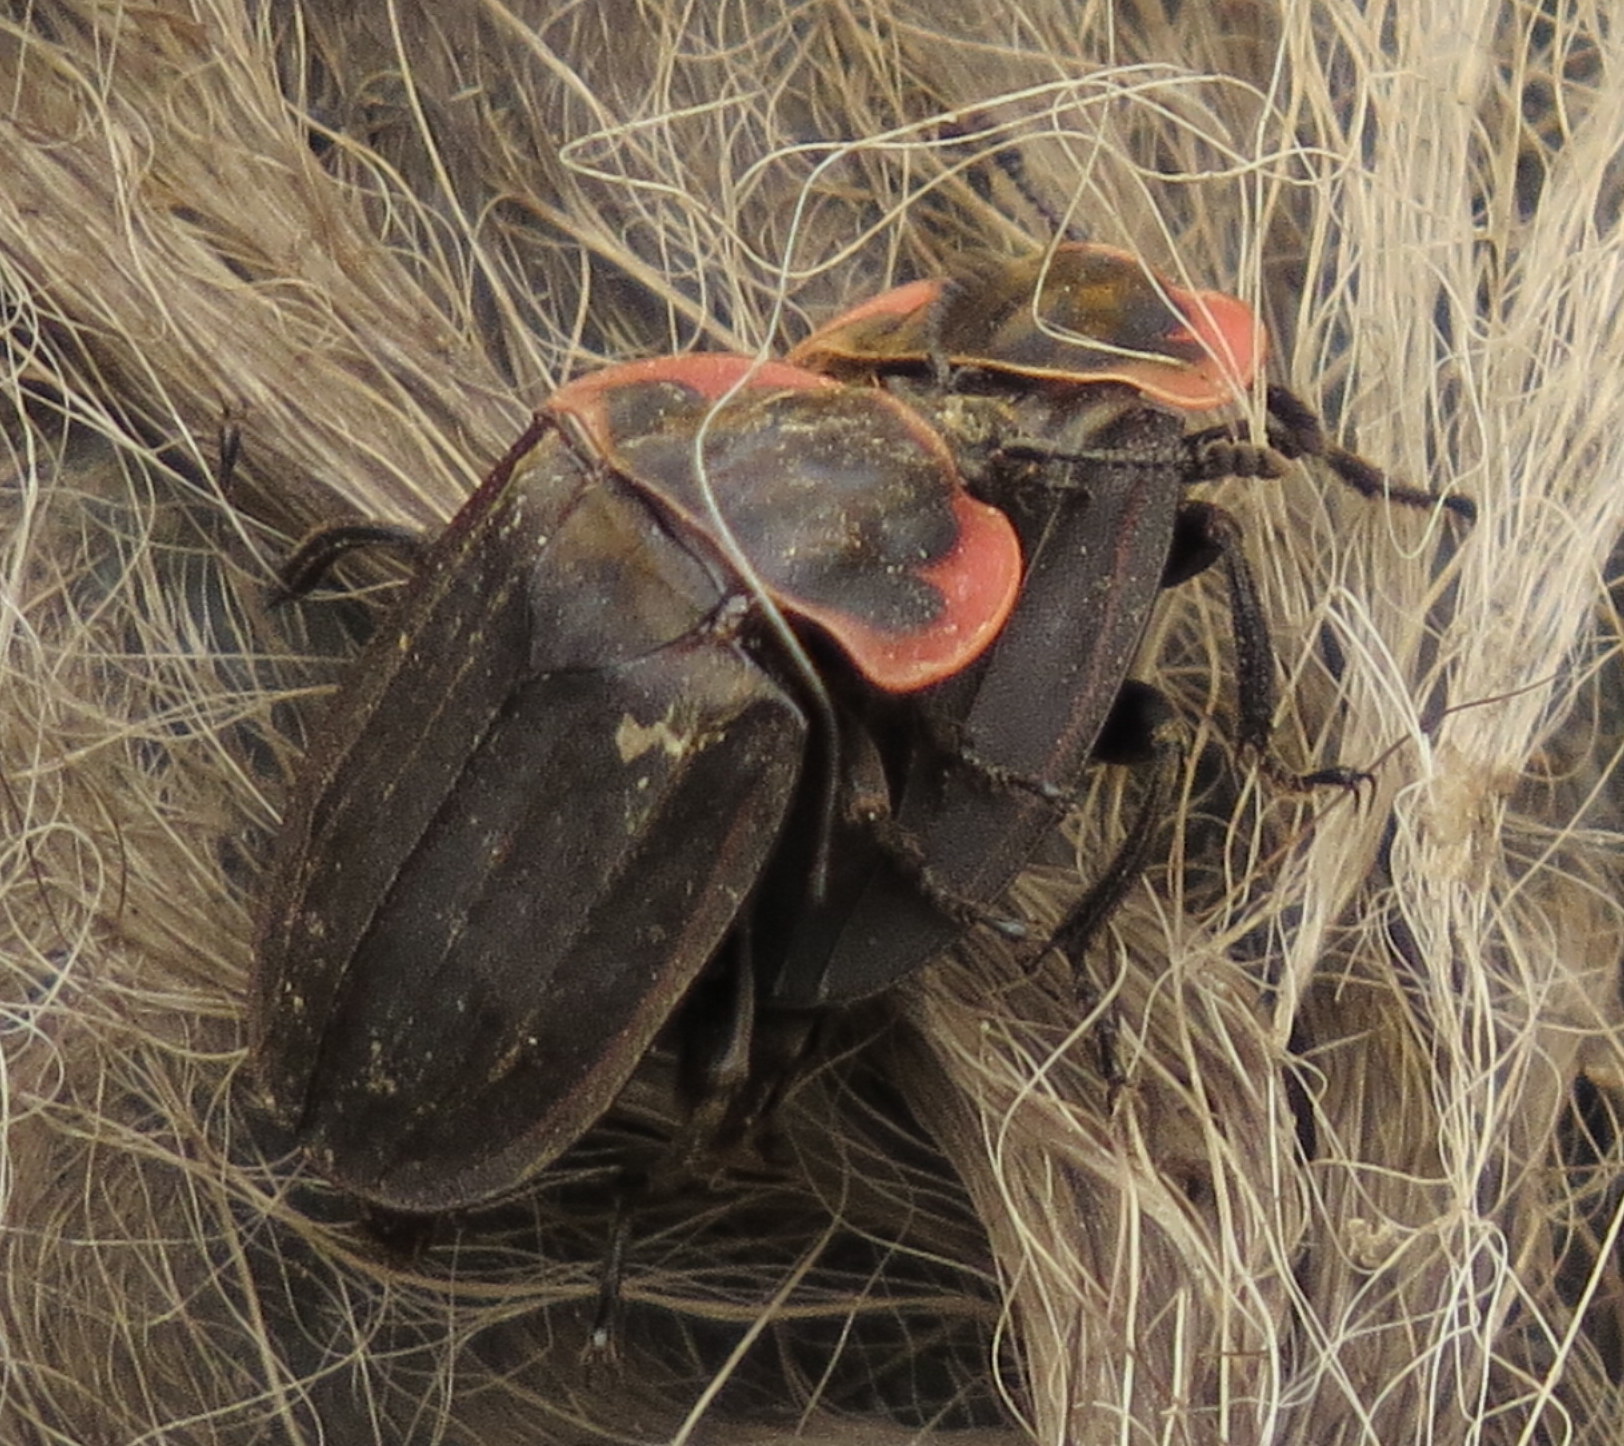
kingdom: Animalia
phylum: Arthropoda
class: Insecta
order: Coleoptera
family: Staphylinidae
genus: Oiceoptoma
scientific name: Oiceoptoma noveboracense
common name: Margined carrion beetle
